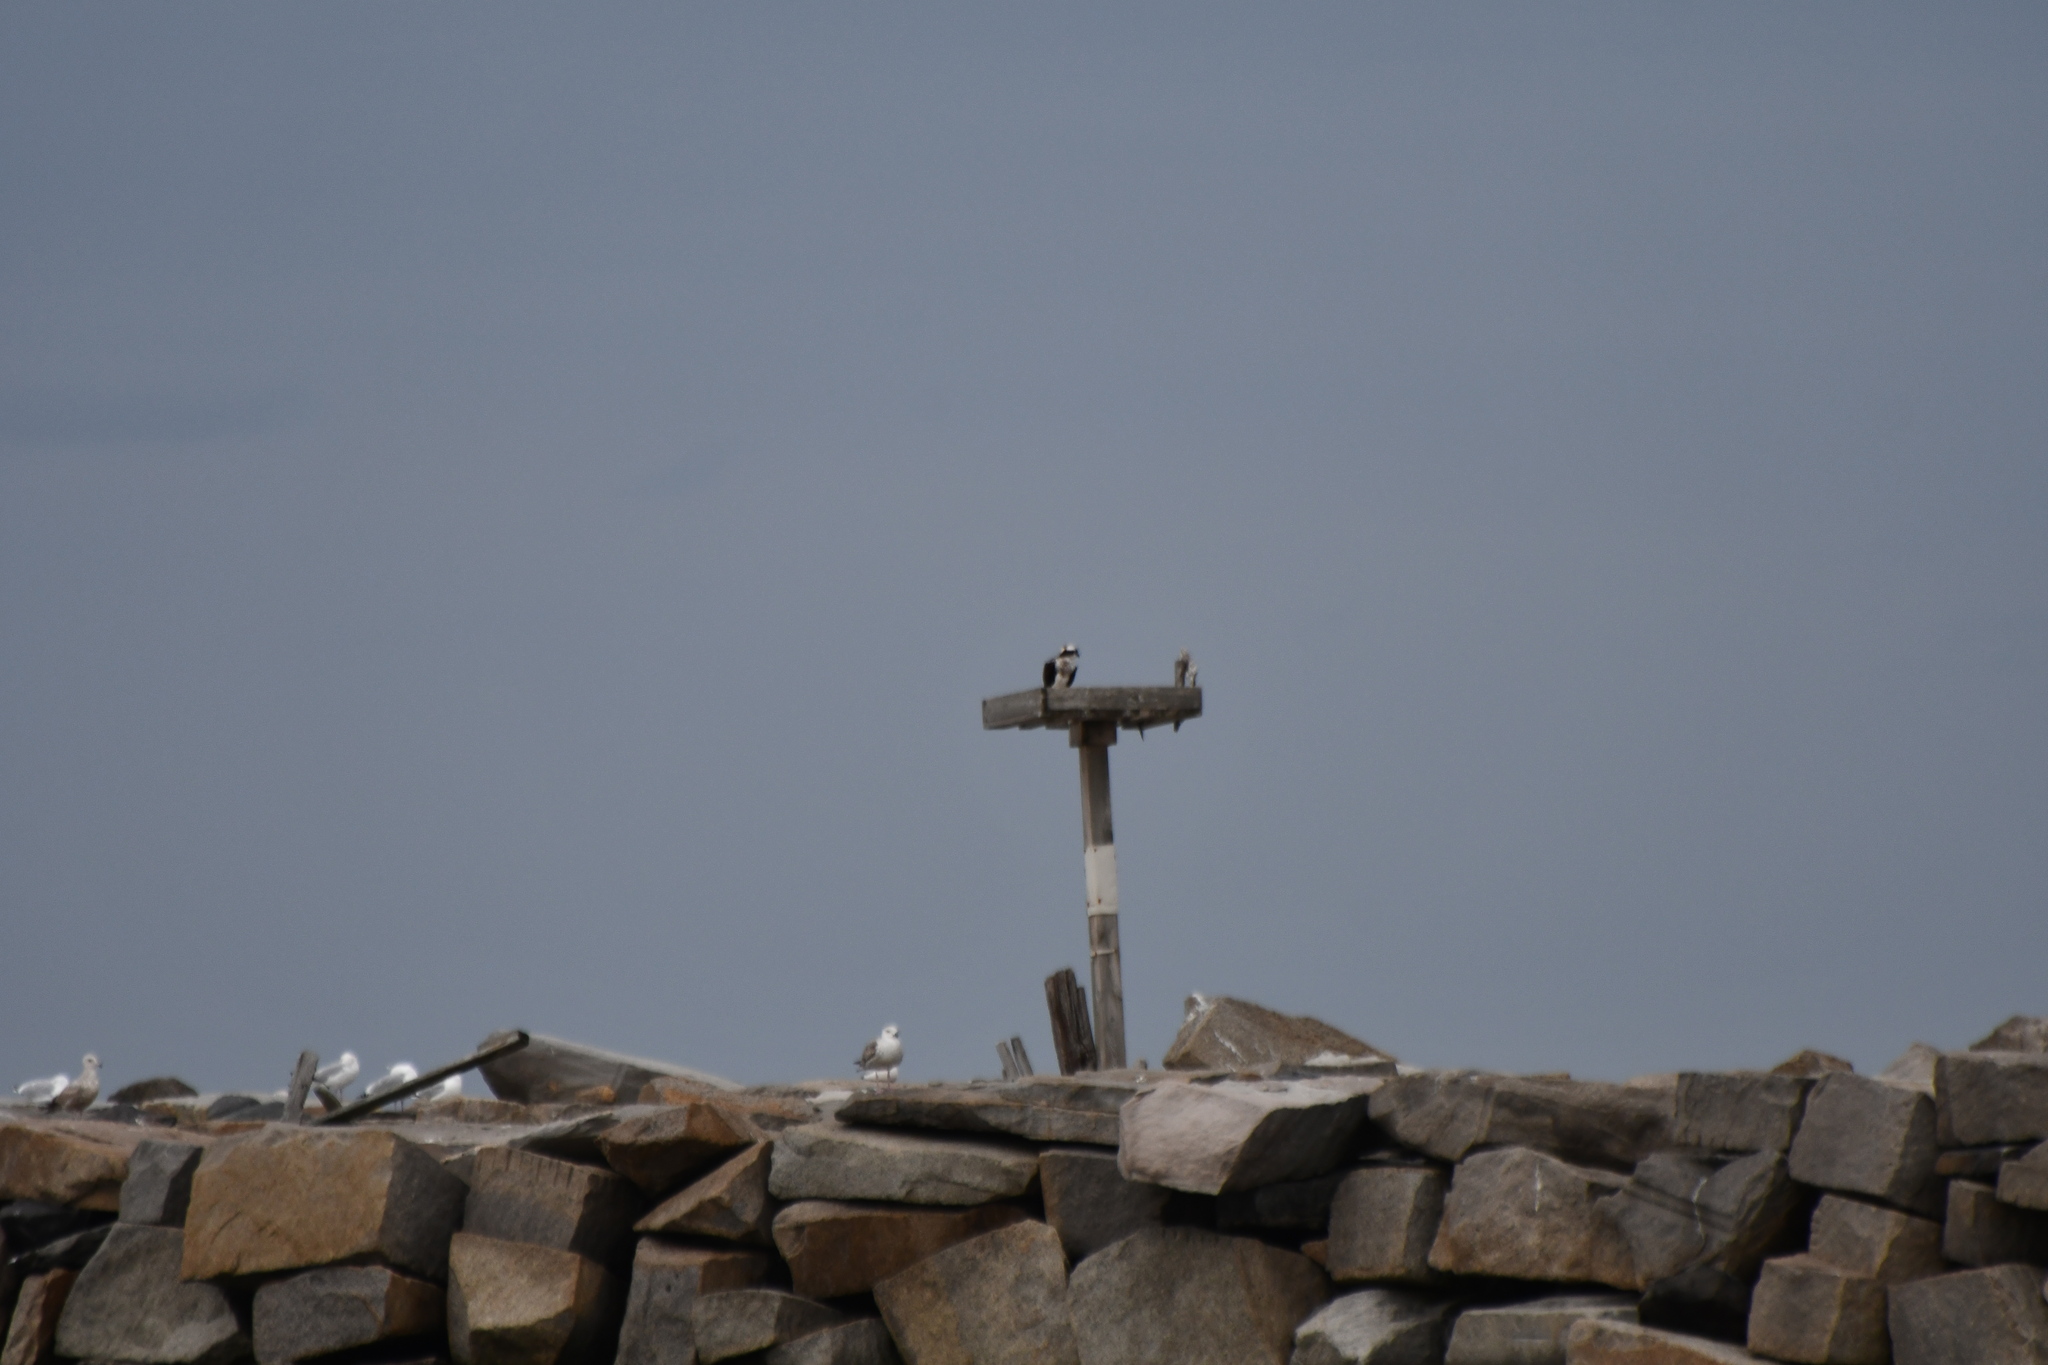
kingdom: Animalia
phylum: Chordata
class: Aves
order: Accipitriformes
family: Pandionidae
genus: Pandion
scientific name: Pandion haliaetus
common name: Osprey
